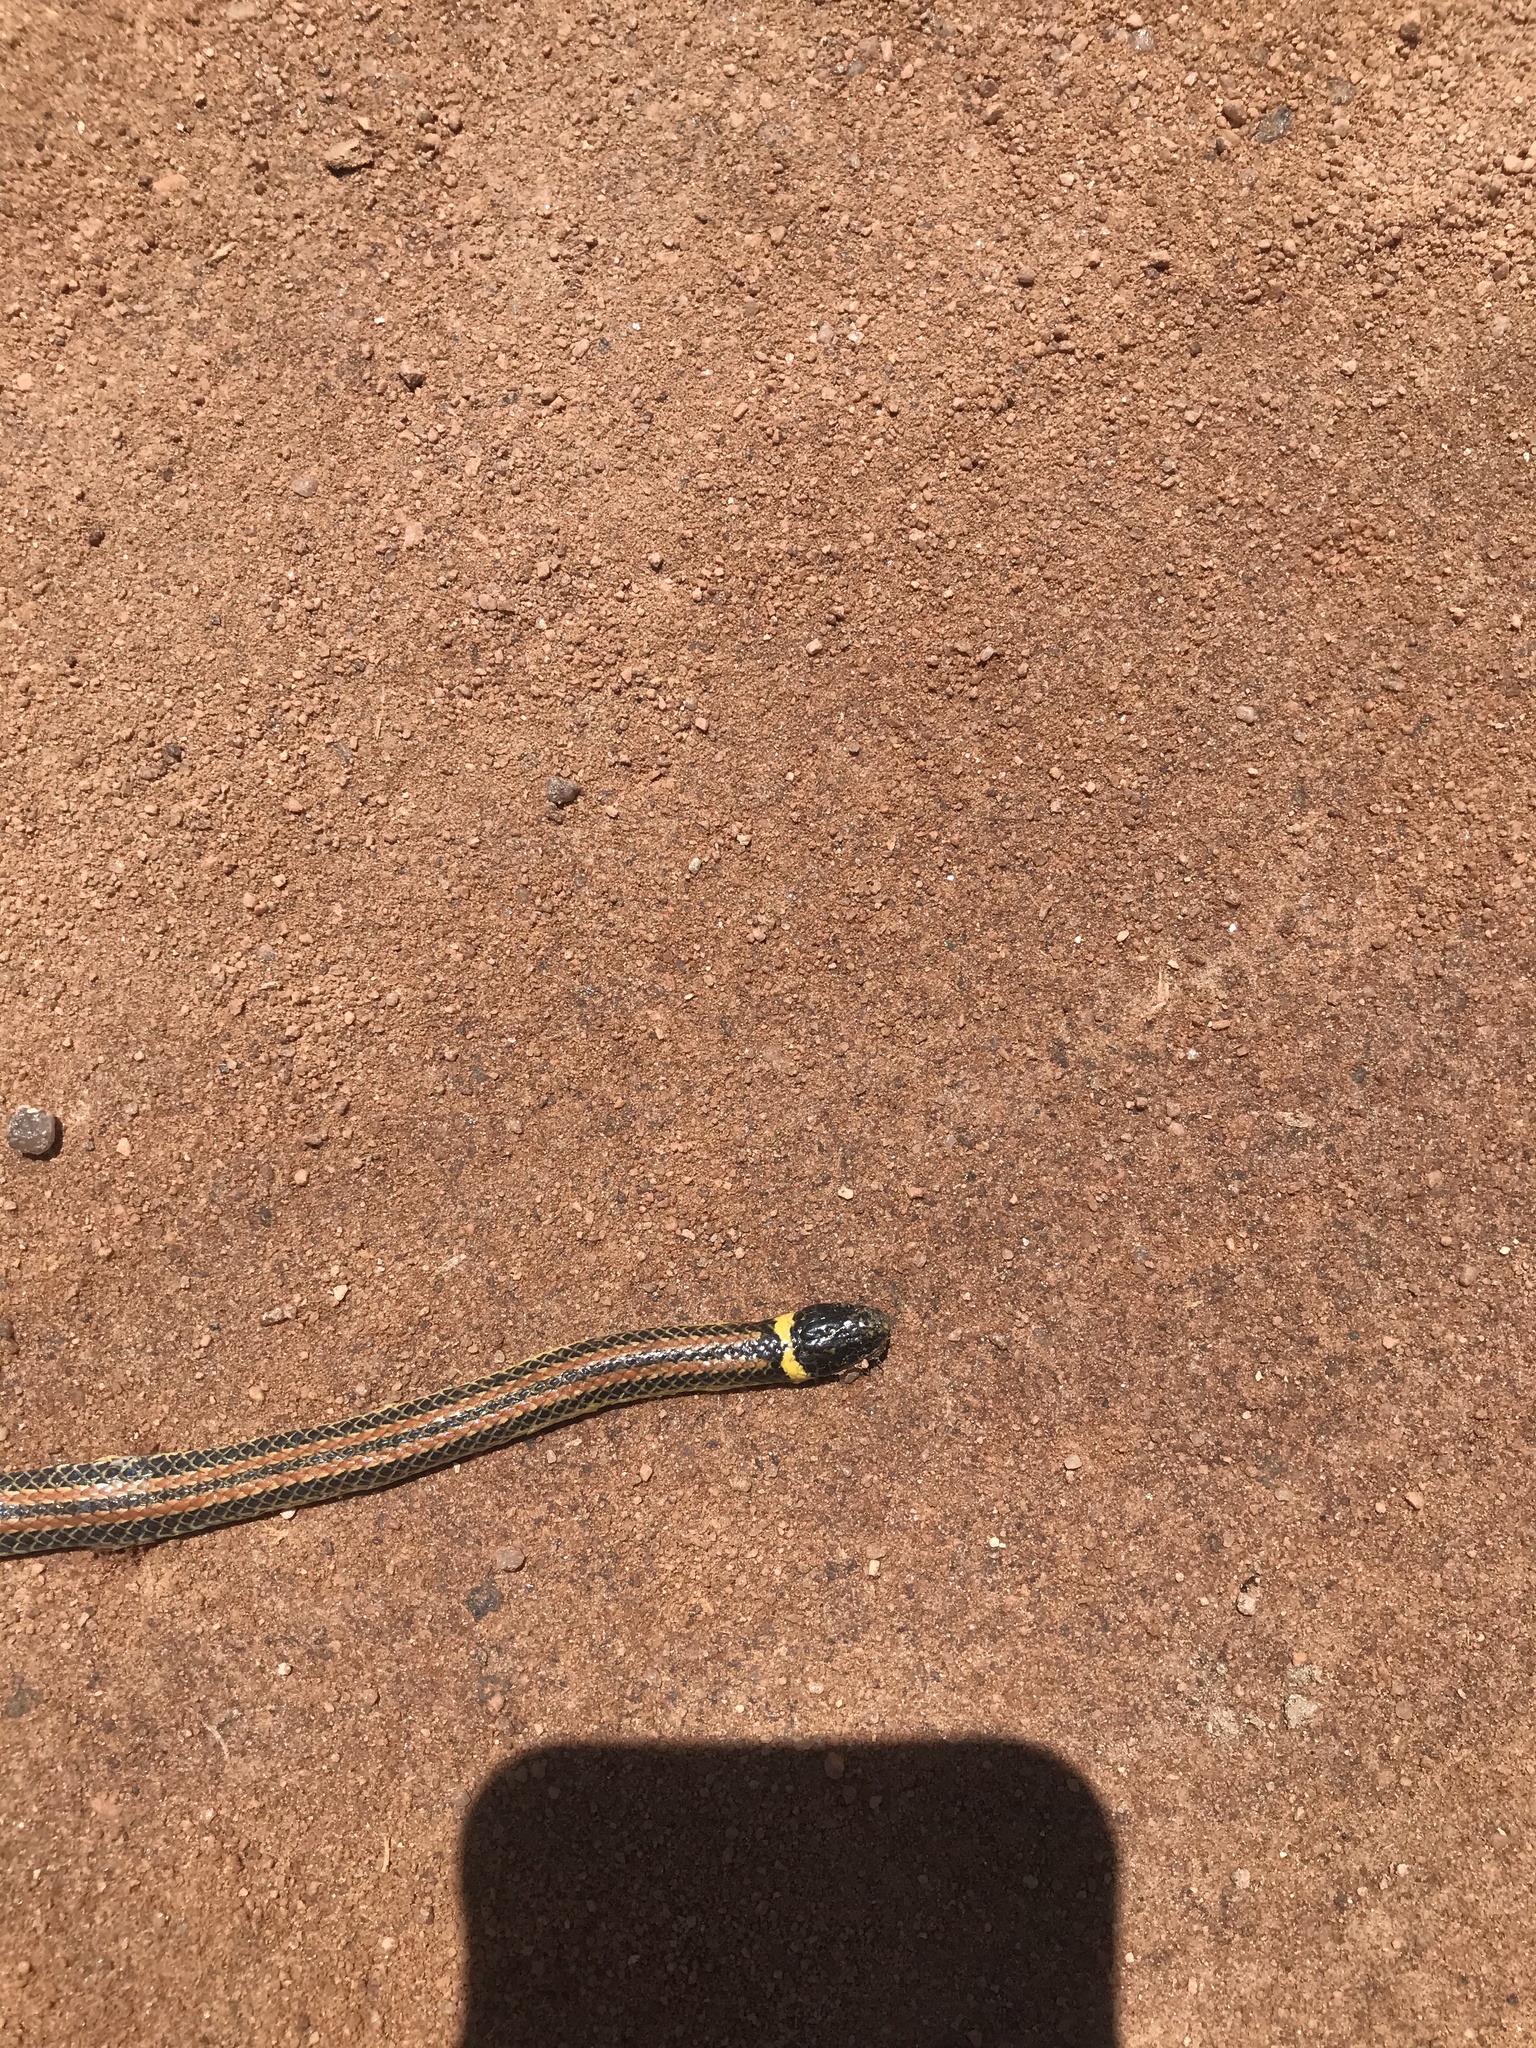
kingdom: Animalia
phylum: Chordata
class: Squamata
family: Colubridae
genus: Phalotris
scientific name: Phalotris lemniscatus
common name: Dumeril's diadem snake
